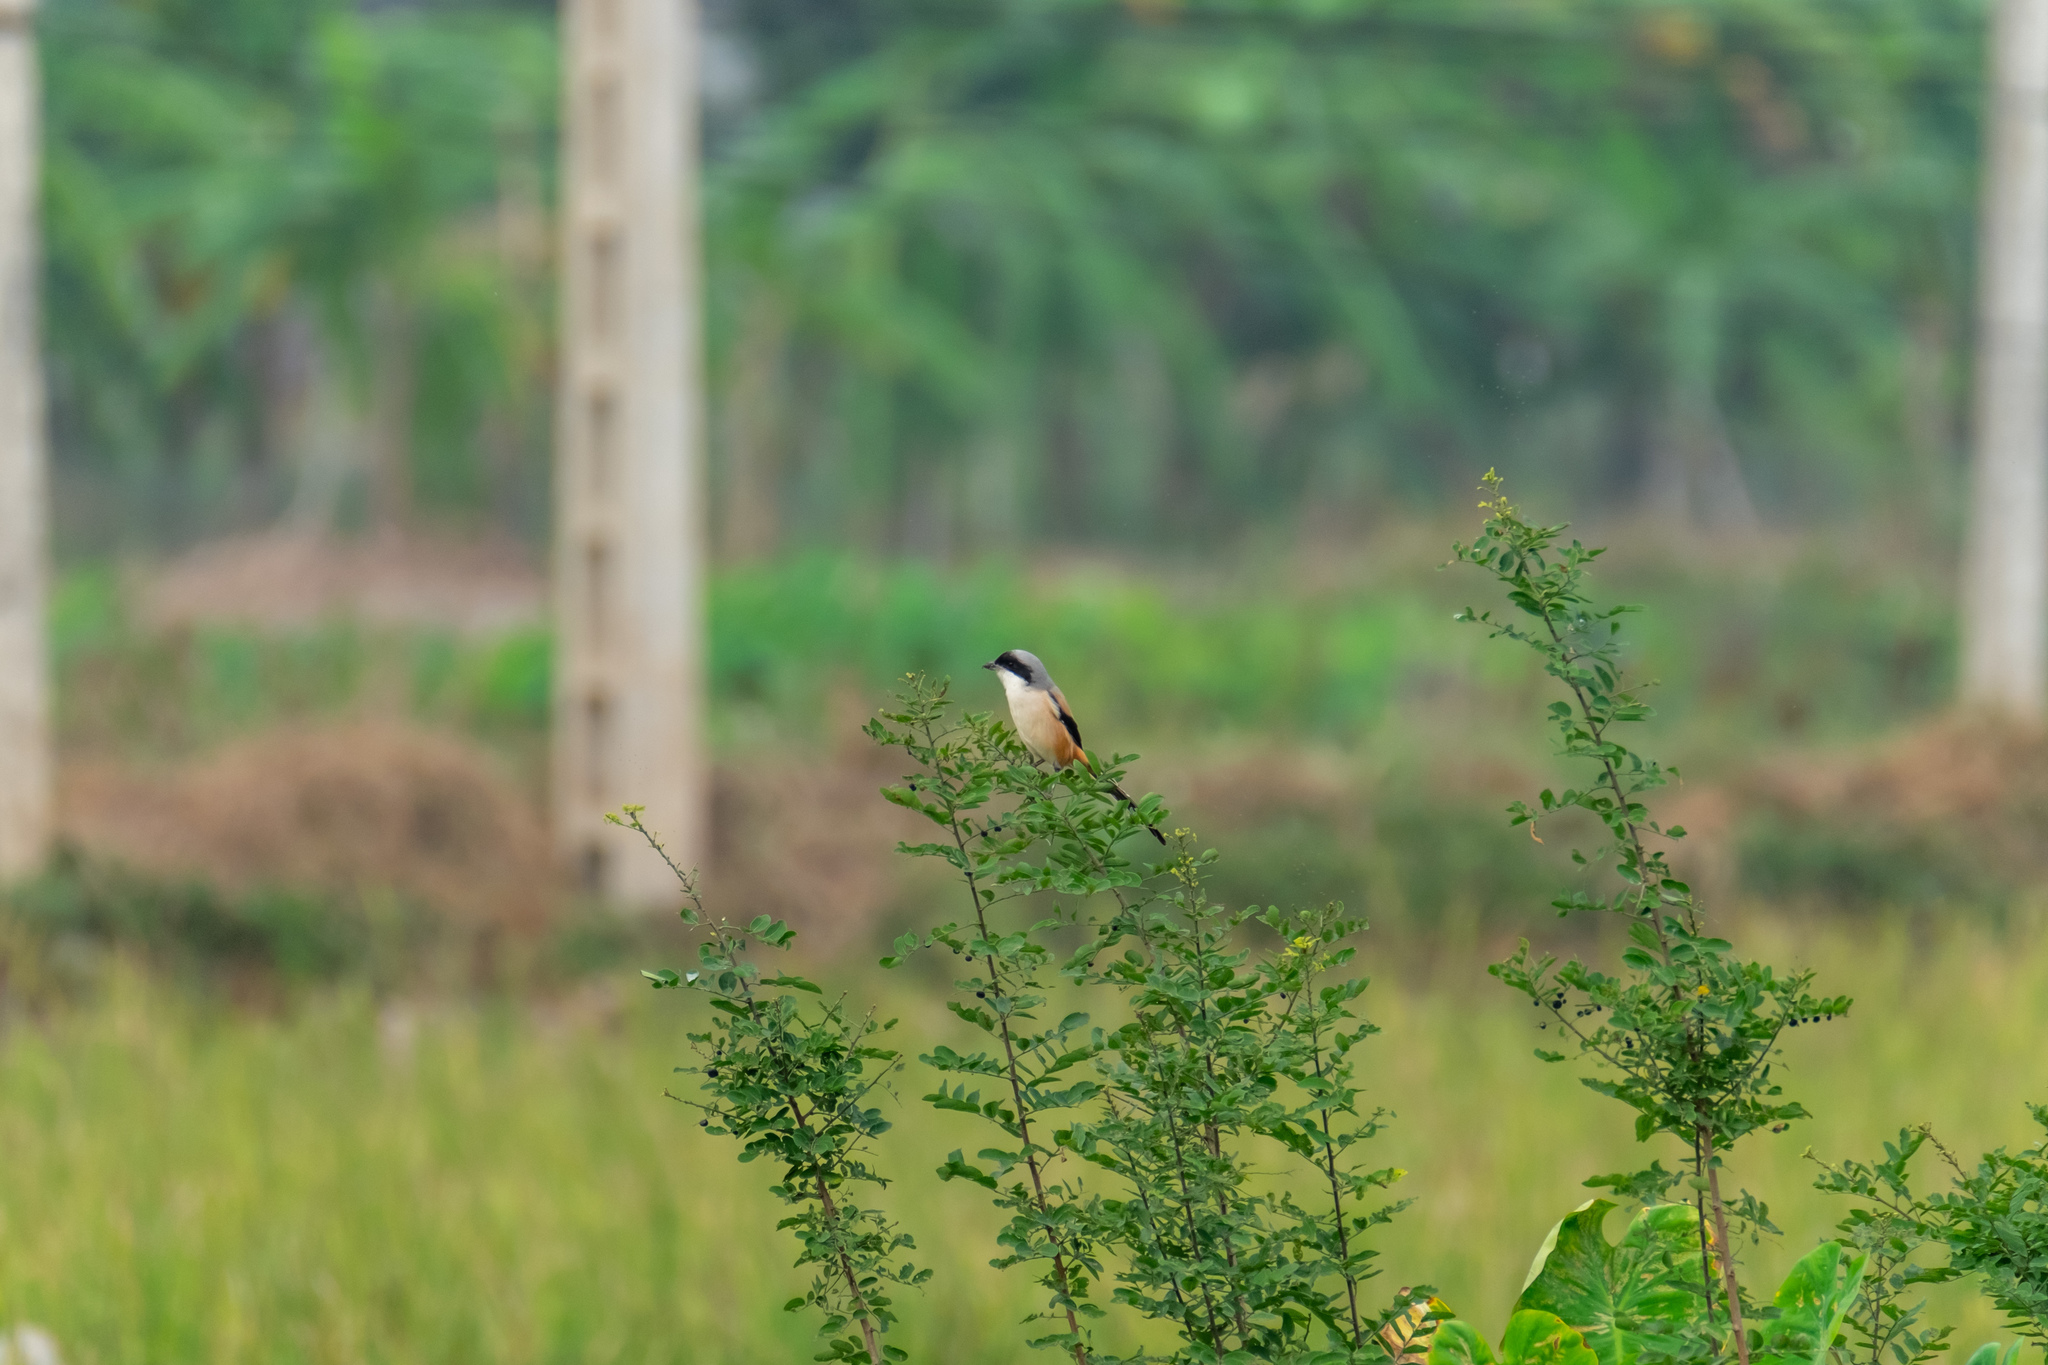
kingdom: Animalia
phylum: Chordata
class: Aves
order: Passeriformes
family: Laniidae
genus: Lanius
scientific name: Lanius schach
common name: Long-tailed shrike
